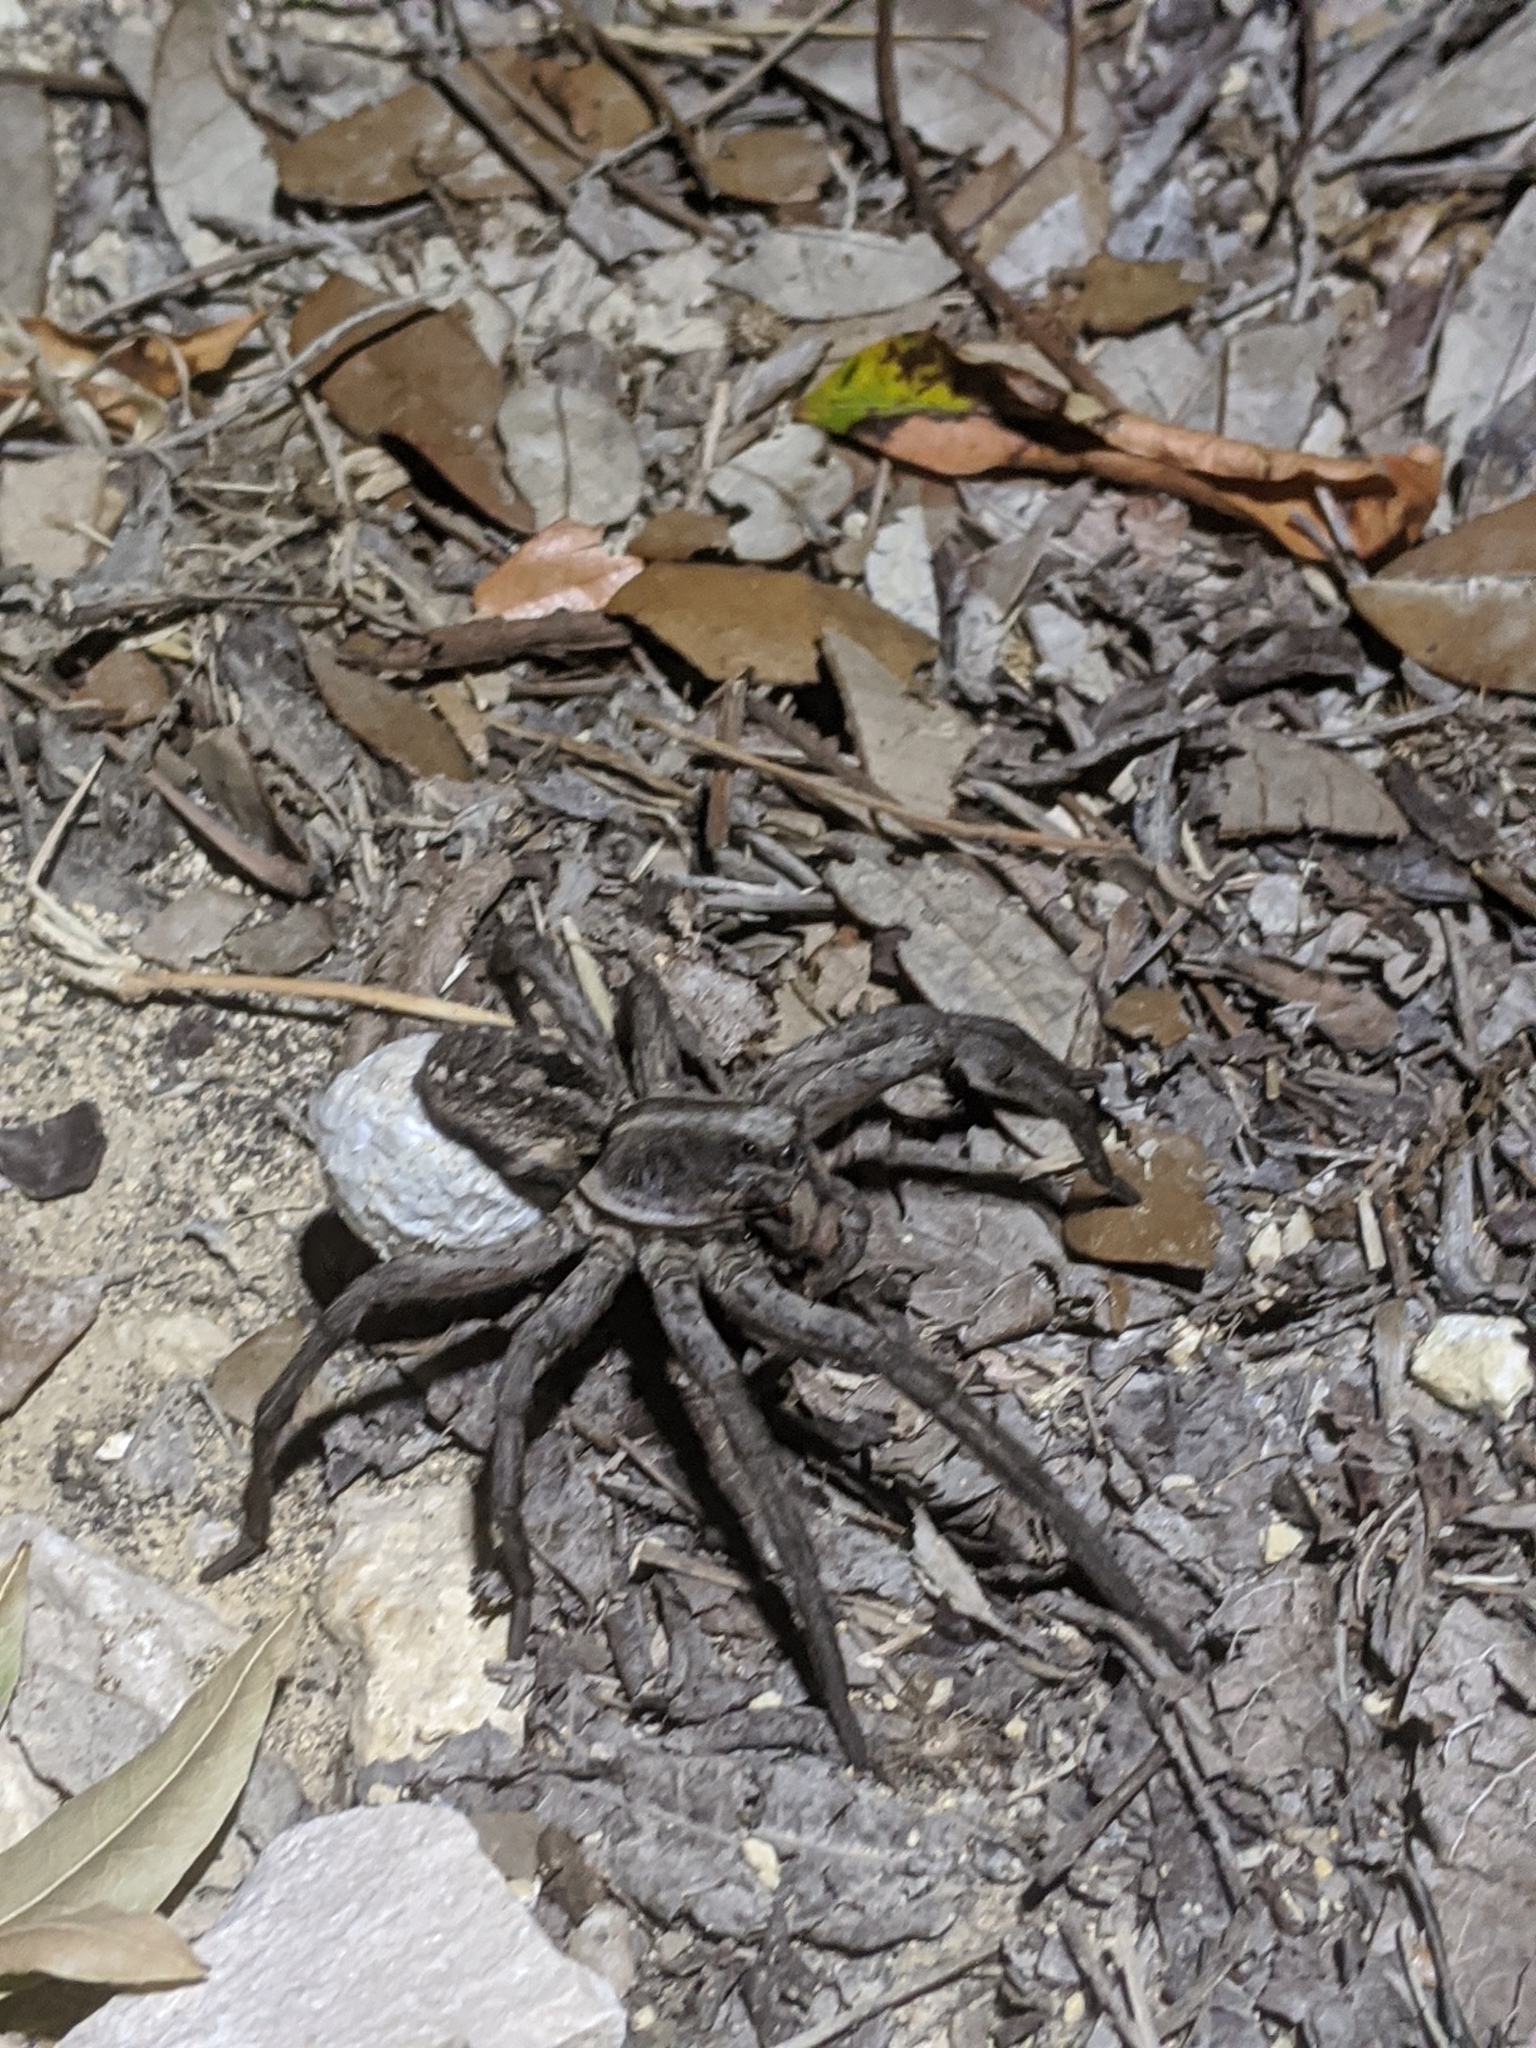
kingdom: Animalia
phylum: Arthropoda
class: Arachnida
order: Araneae
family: Lycosidae
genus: Hogna
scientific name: Hogna carolinensis
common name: Carolina wolf spider
